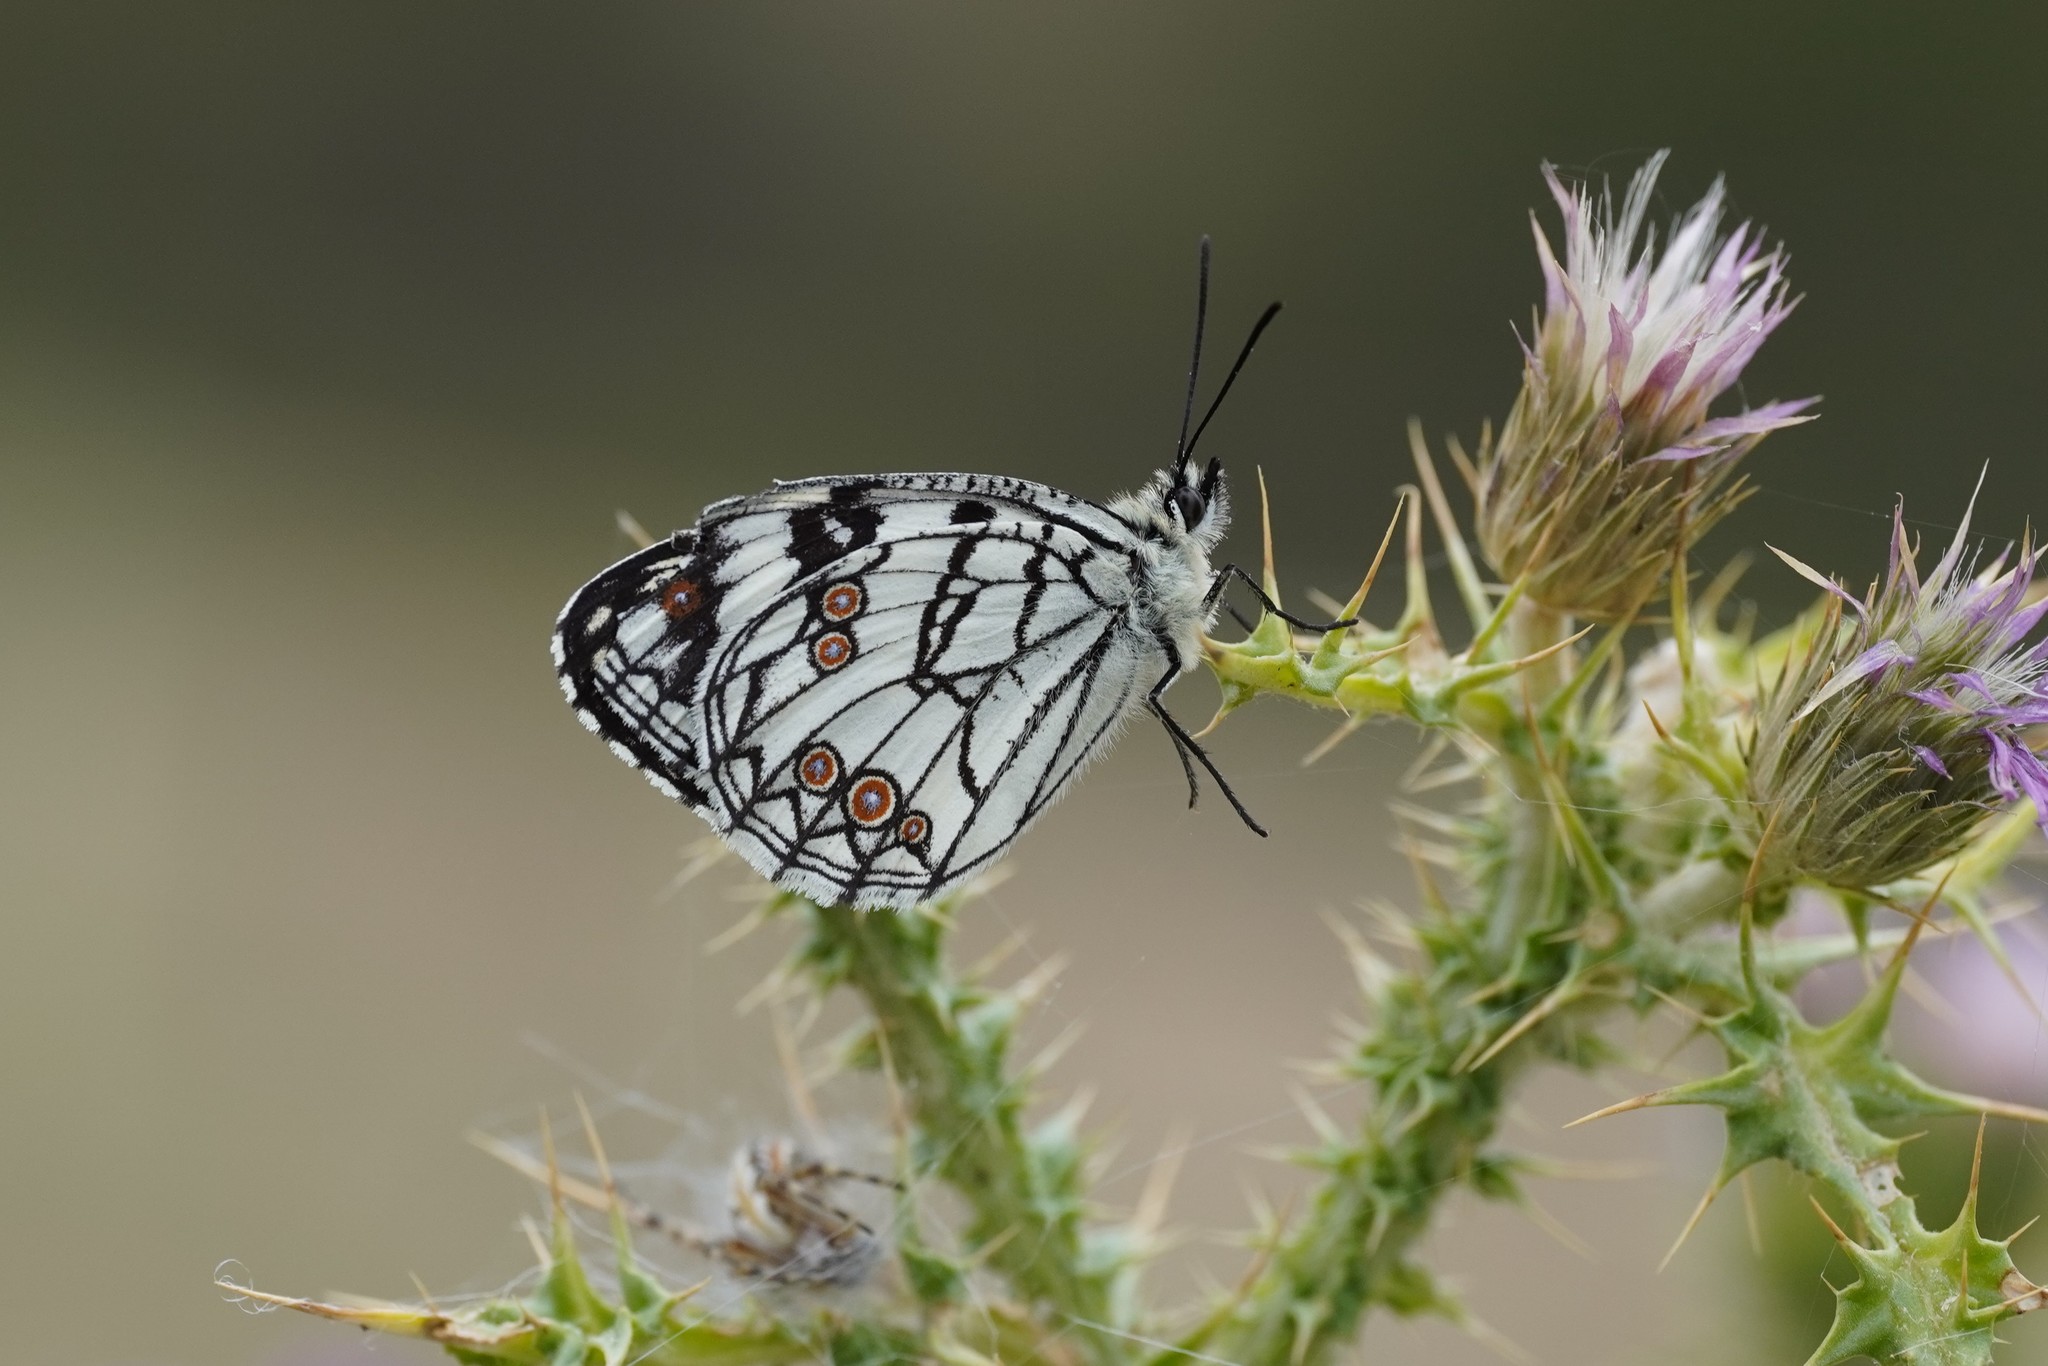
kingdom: Animalia
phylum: Arthropoda
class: Insecta
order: Lepidoptera
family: Nymphalidae
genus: Melanargia
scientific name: Melanargia ines
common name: Spanish marbled white
